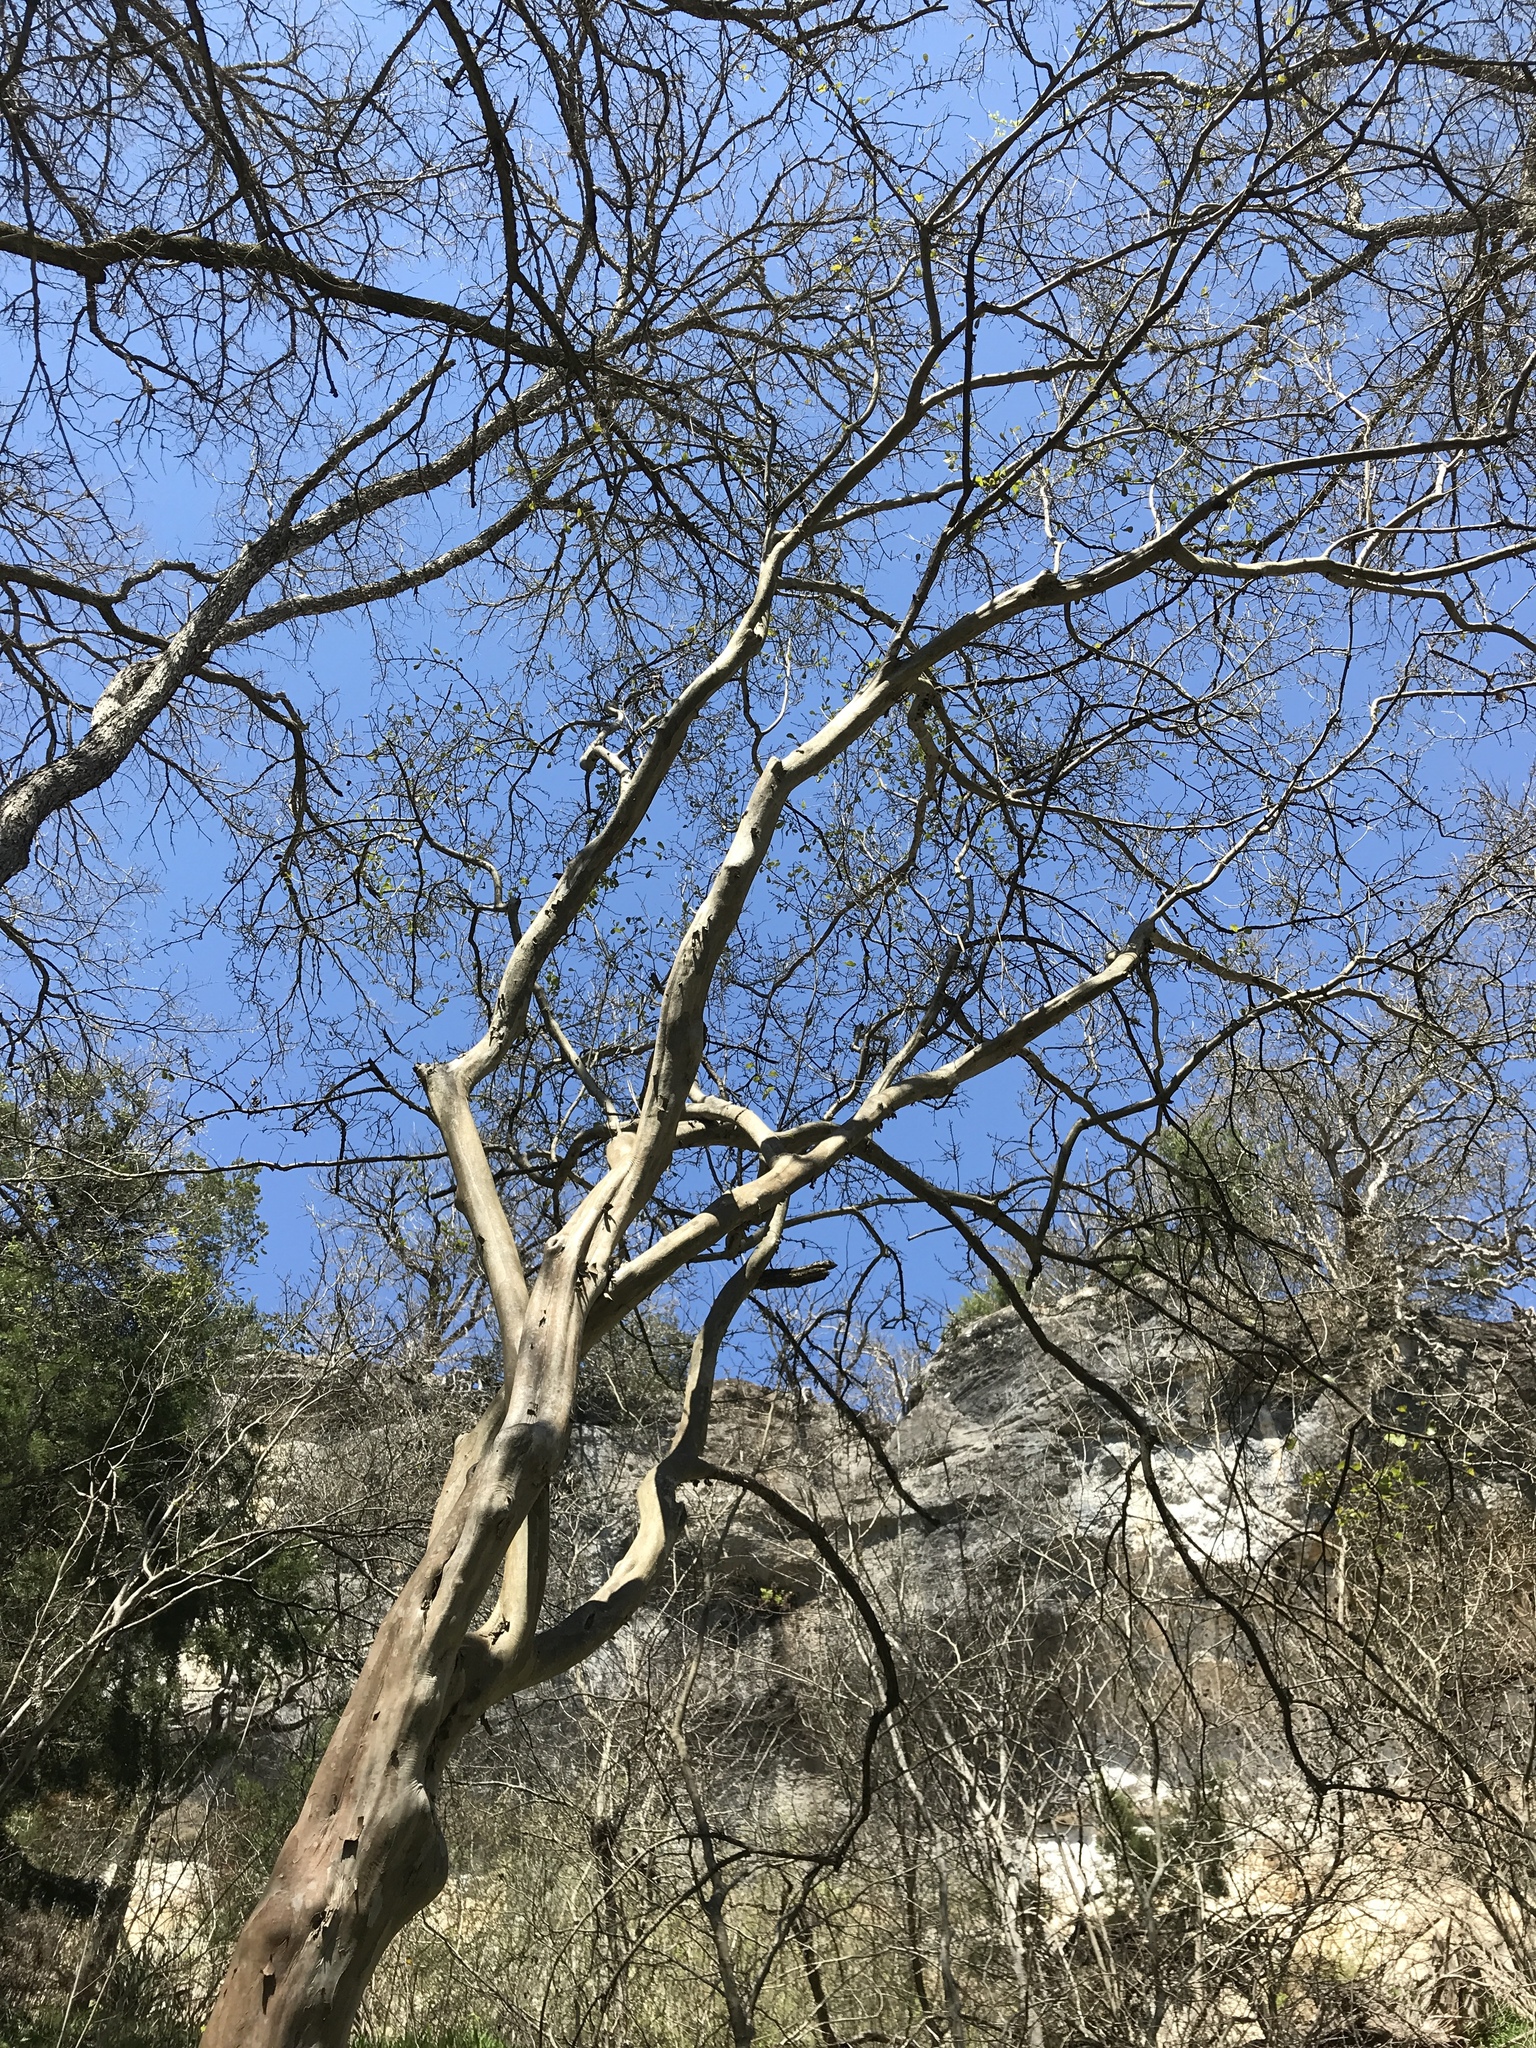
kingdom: Plantae
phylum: Tracheophyta
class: Magnoliopsida
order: Ericales
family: Ebenaceae
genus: Diospyros
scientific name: Diospyros texana
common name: Texas persimmon
